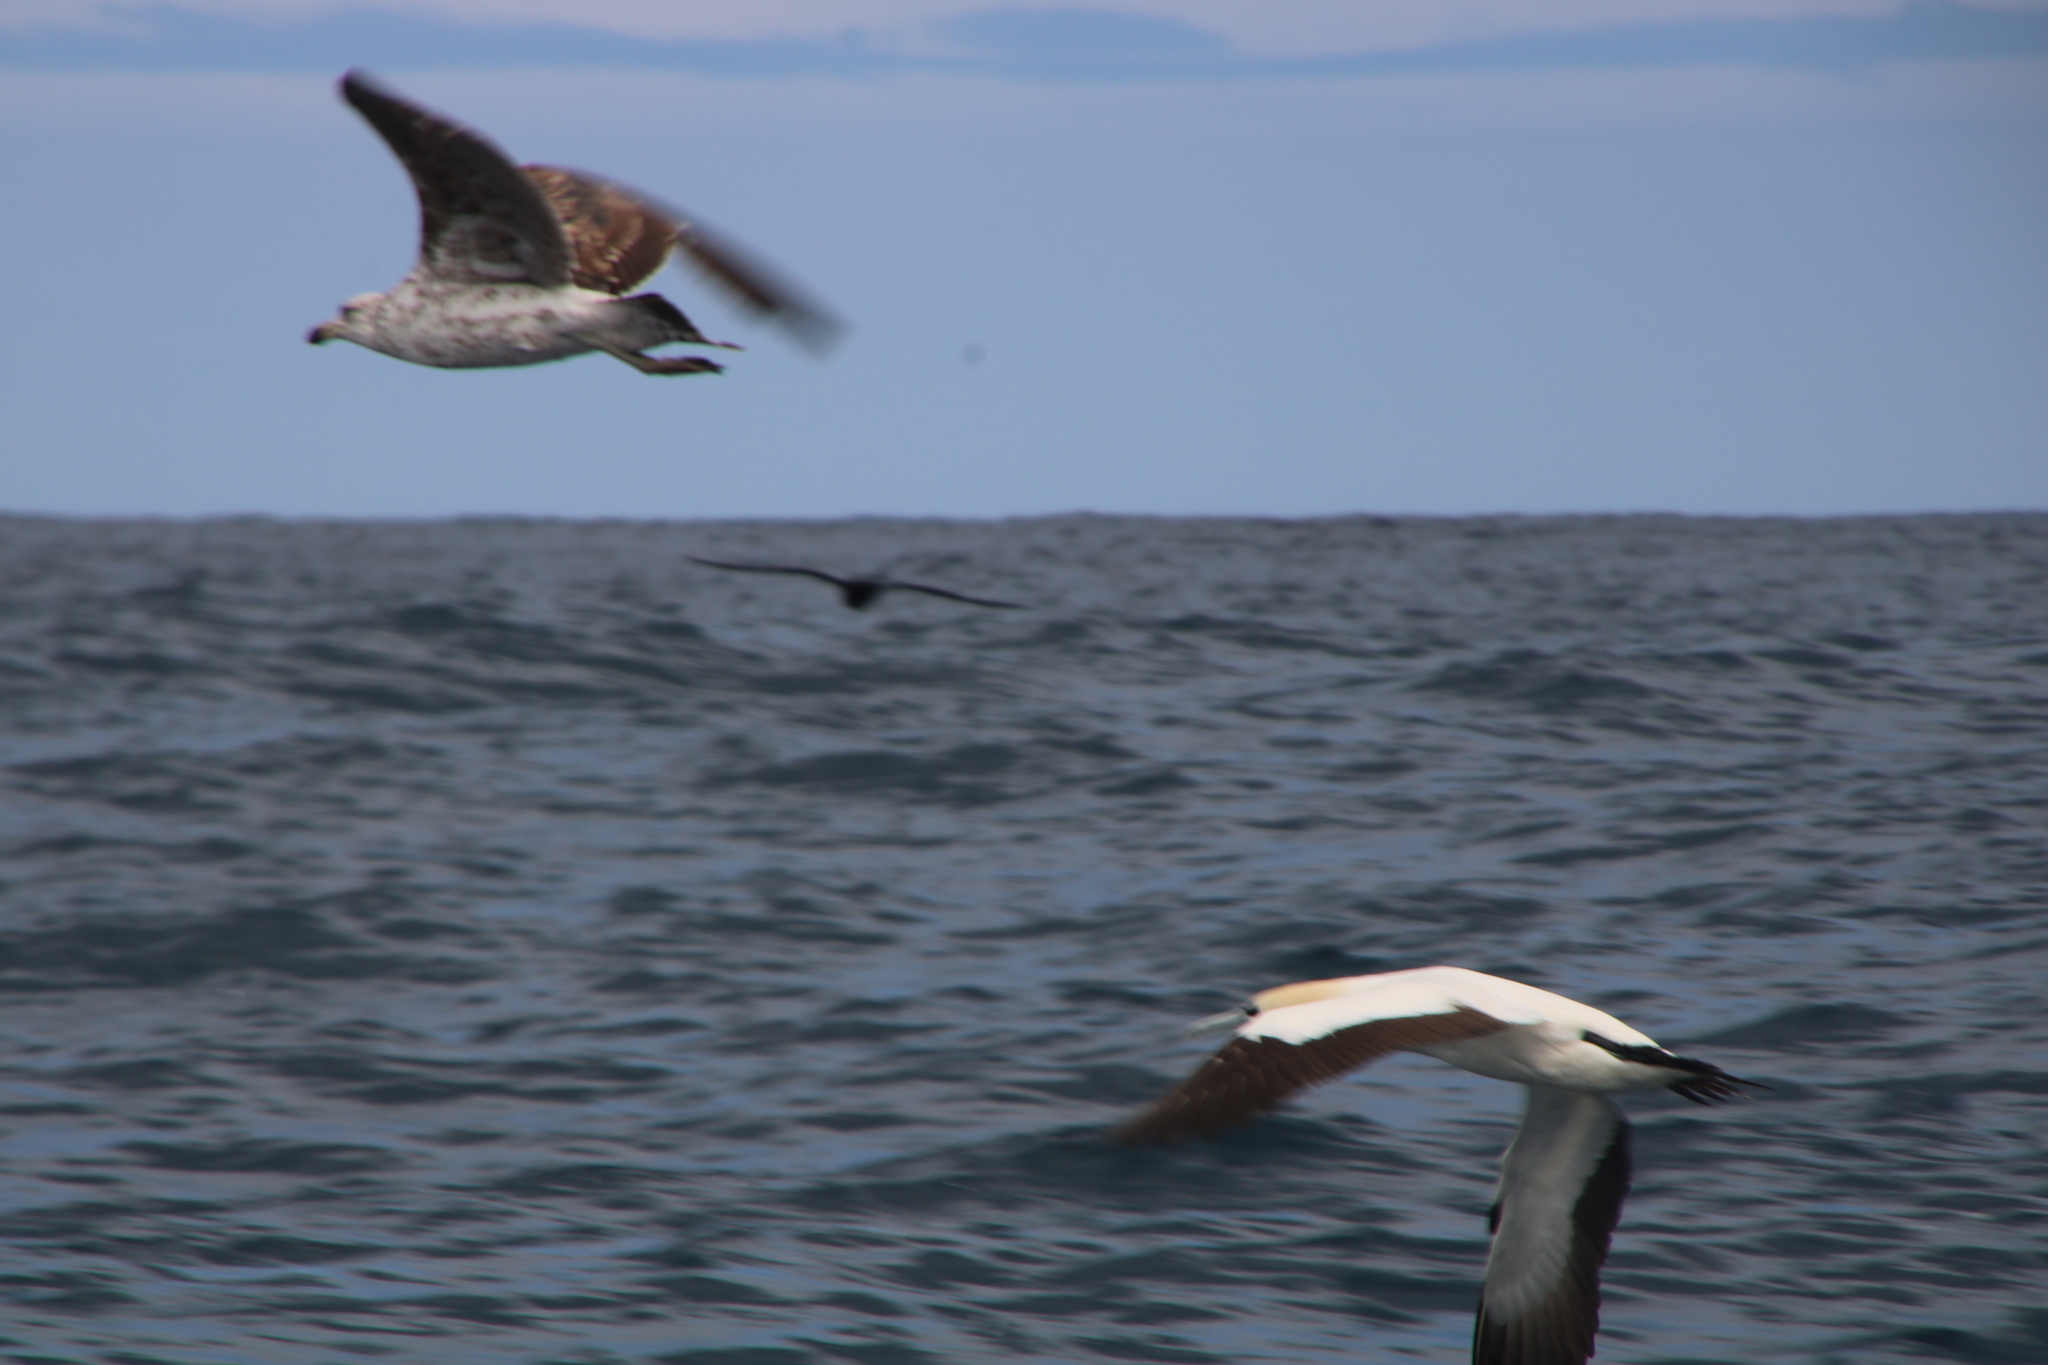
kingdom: Animalia
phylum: Chordata
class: Aves
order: Suliformes
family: Sulidae
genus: Morus
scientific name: Morus capensis
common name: Cape gannet
